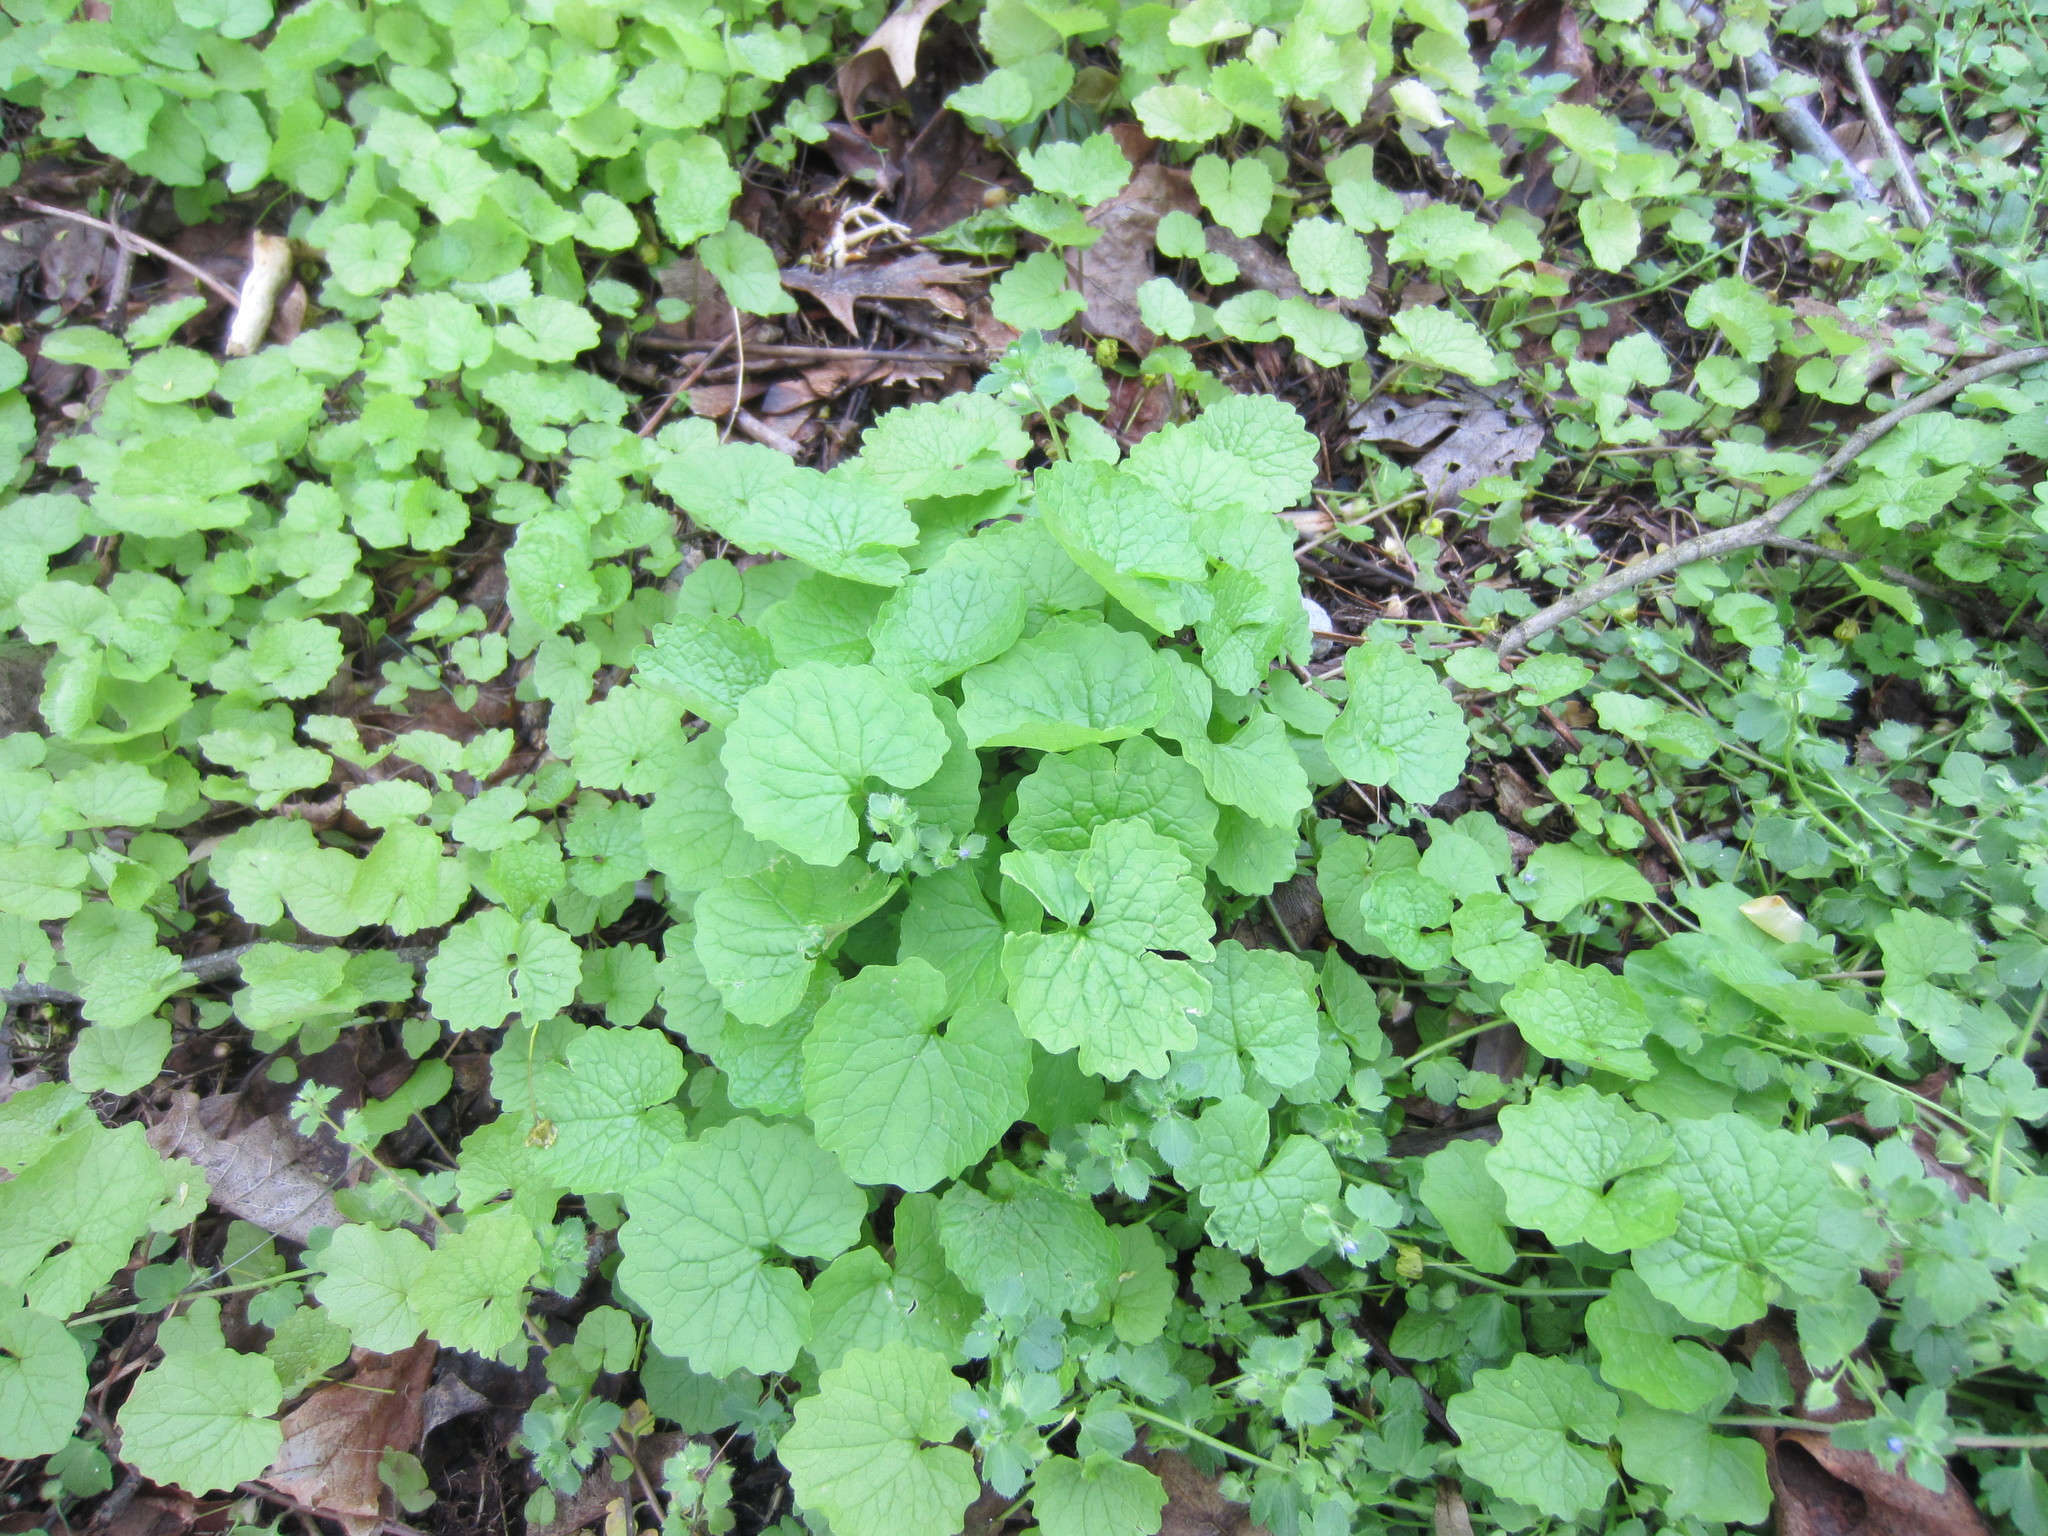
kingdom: Plantae
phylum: Tracheophyta
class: Magnoliopsida
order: Brassicales
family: Brassicaceae
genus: Alliaria
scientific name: Alliaria petiolata
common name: Garlic mustard
